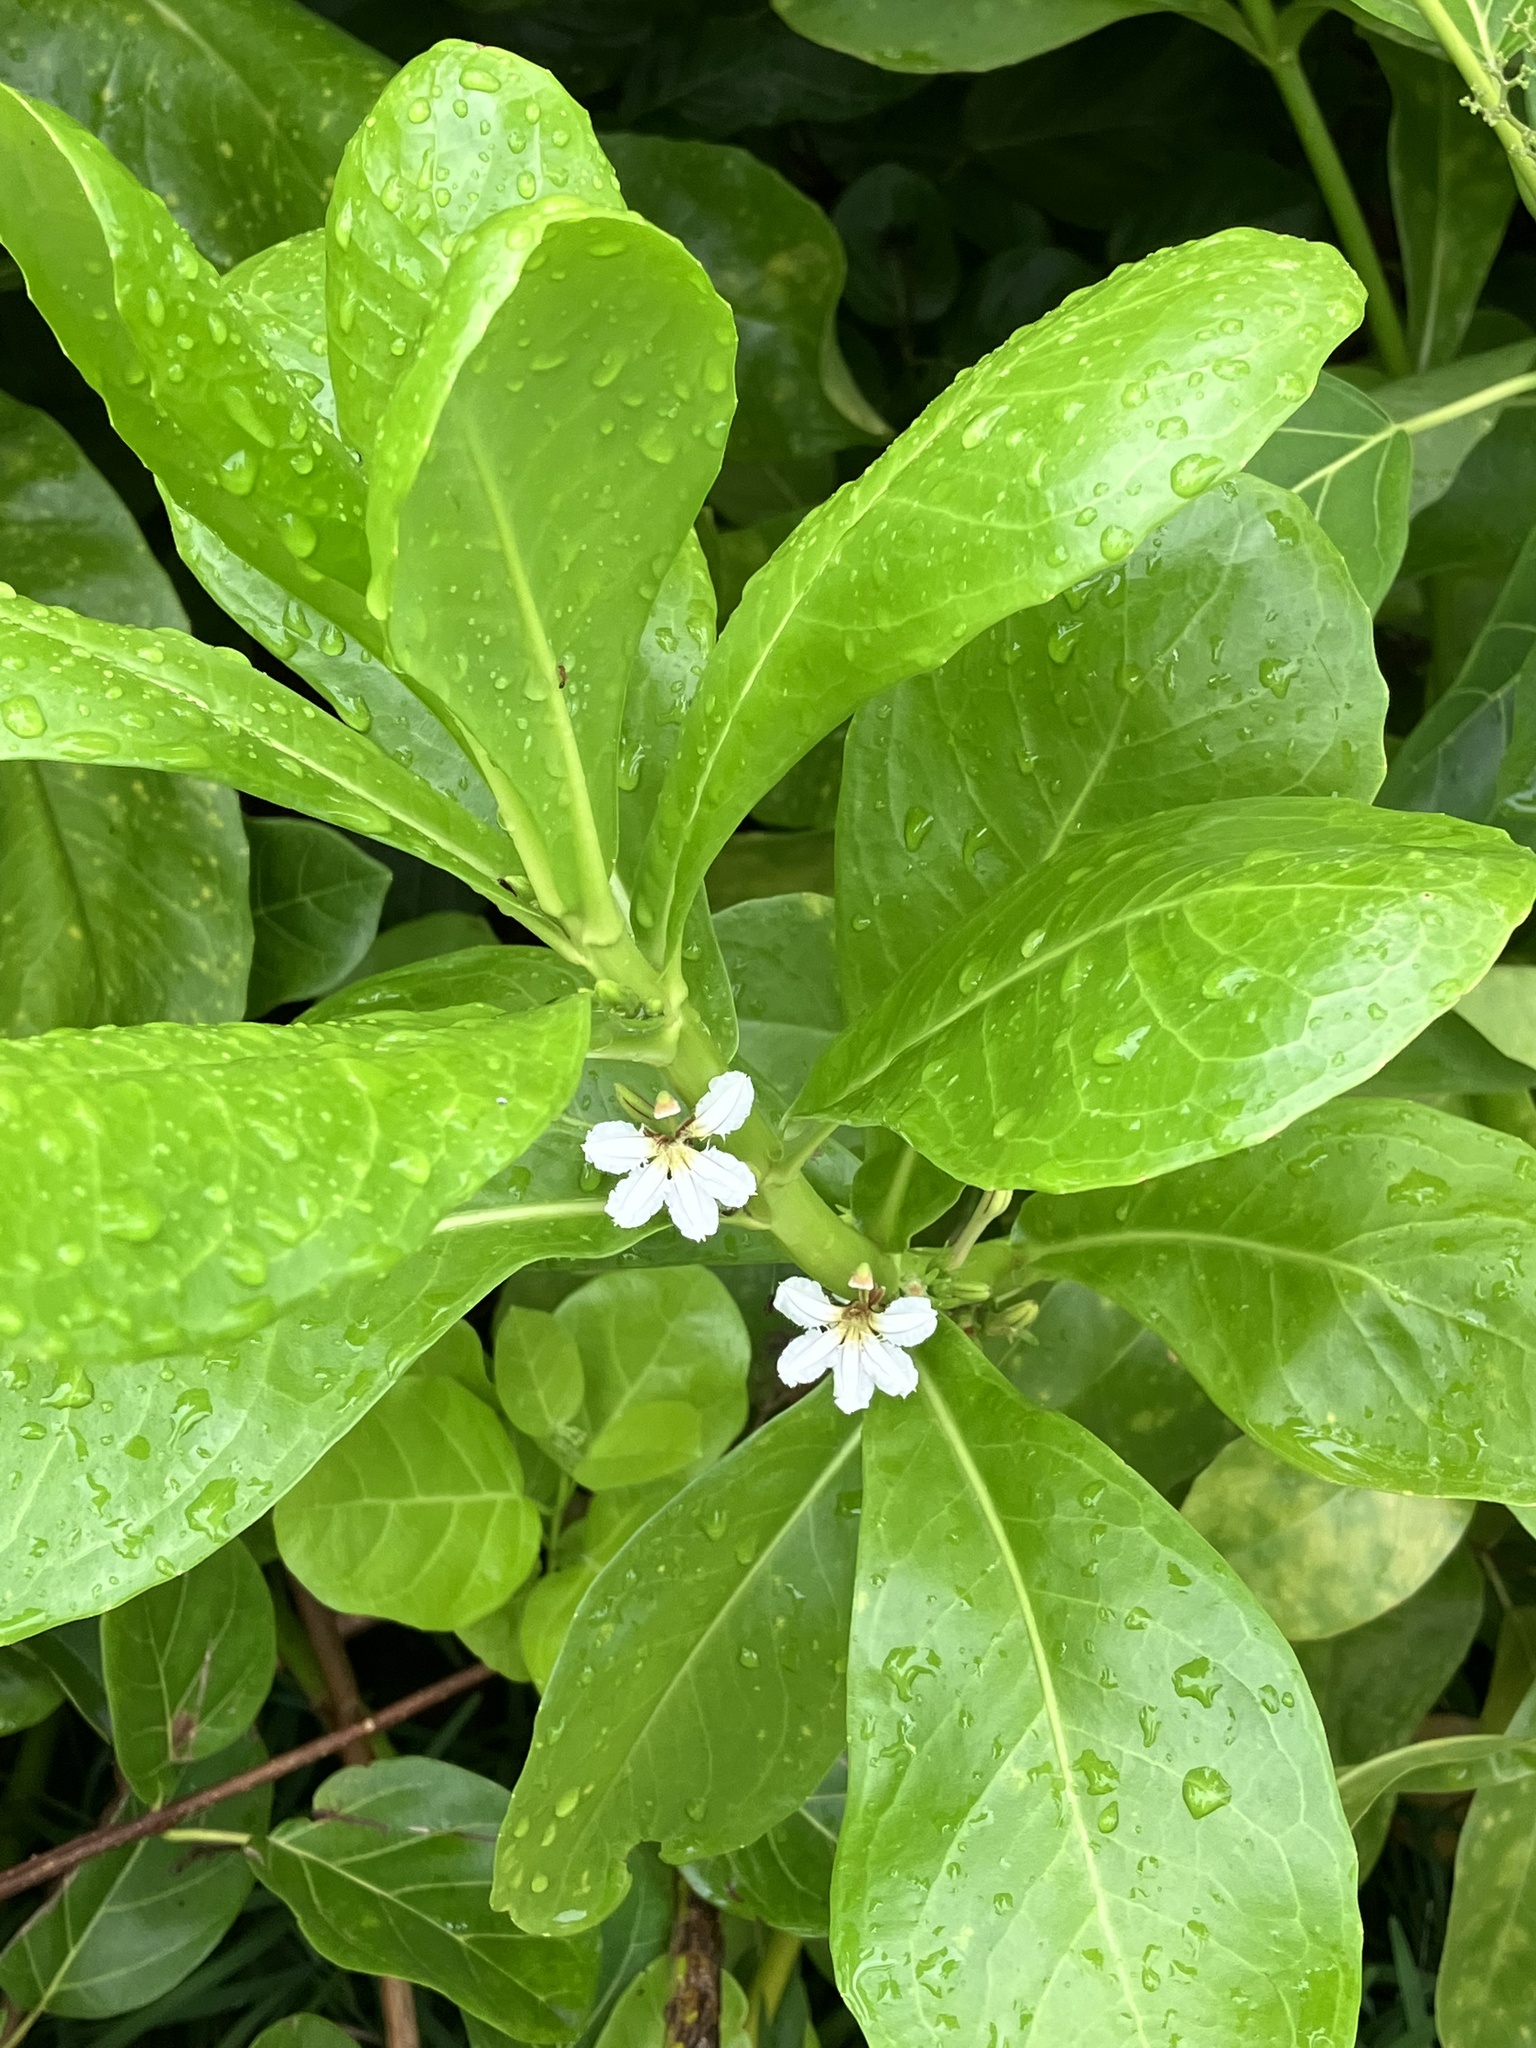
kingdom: Plantae
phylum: Tracheophyta
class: Magnoliopsida
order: Asterales
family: Goodeniaceae
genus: Scaevola
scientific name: Scaevola taccada
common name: Sea lettucetree
